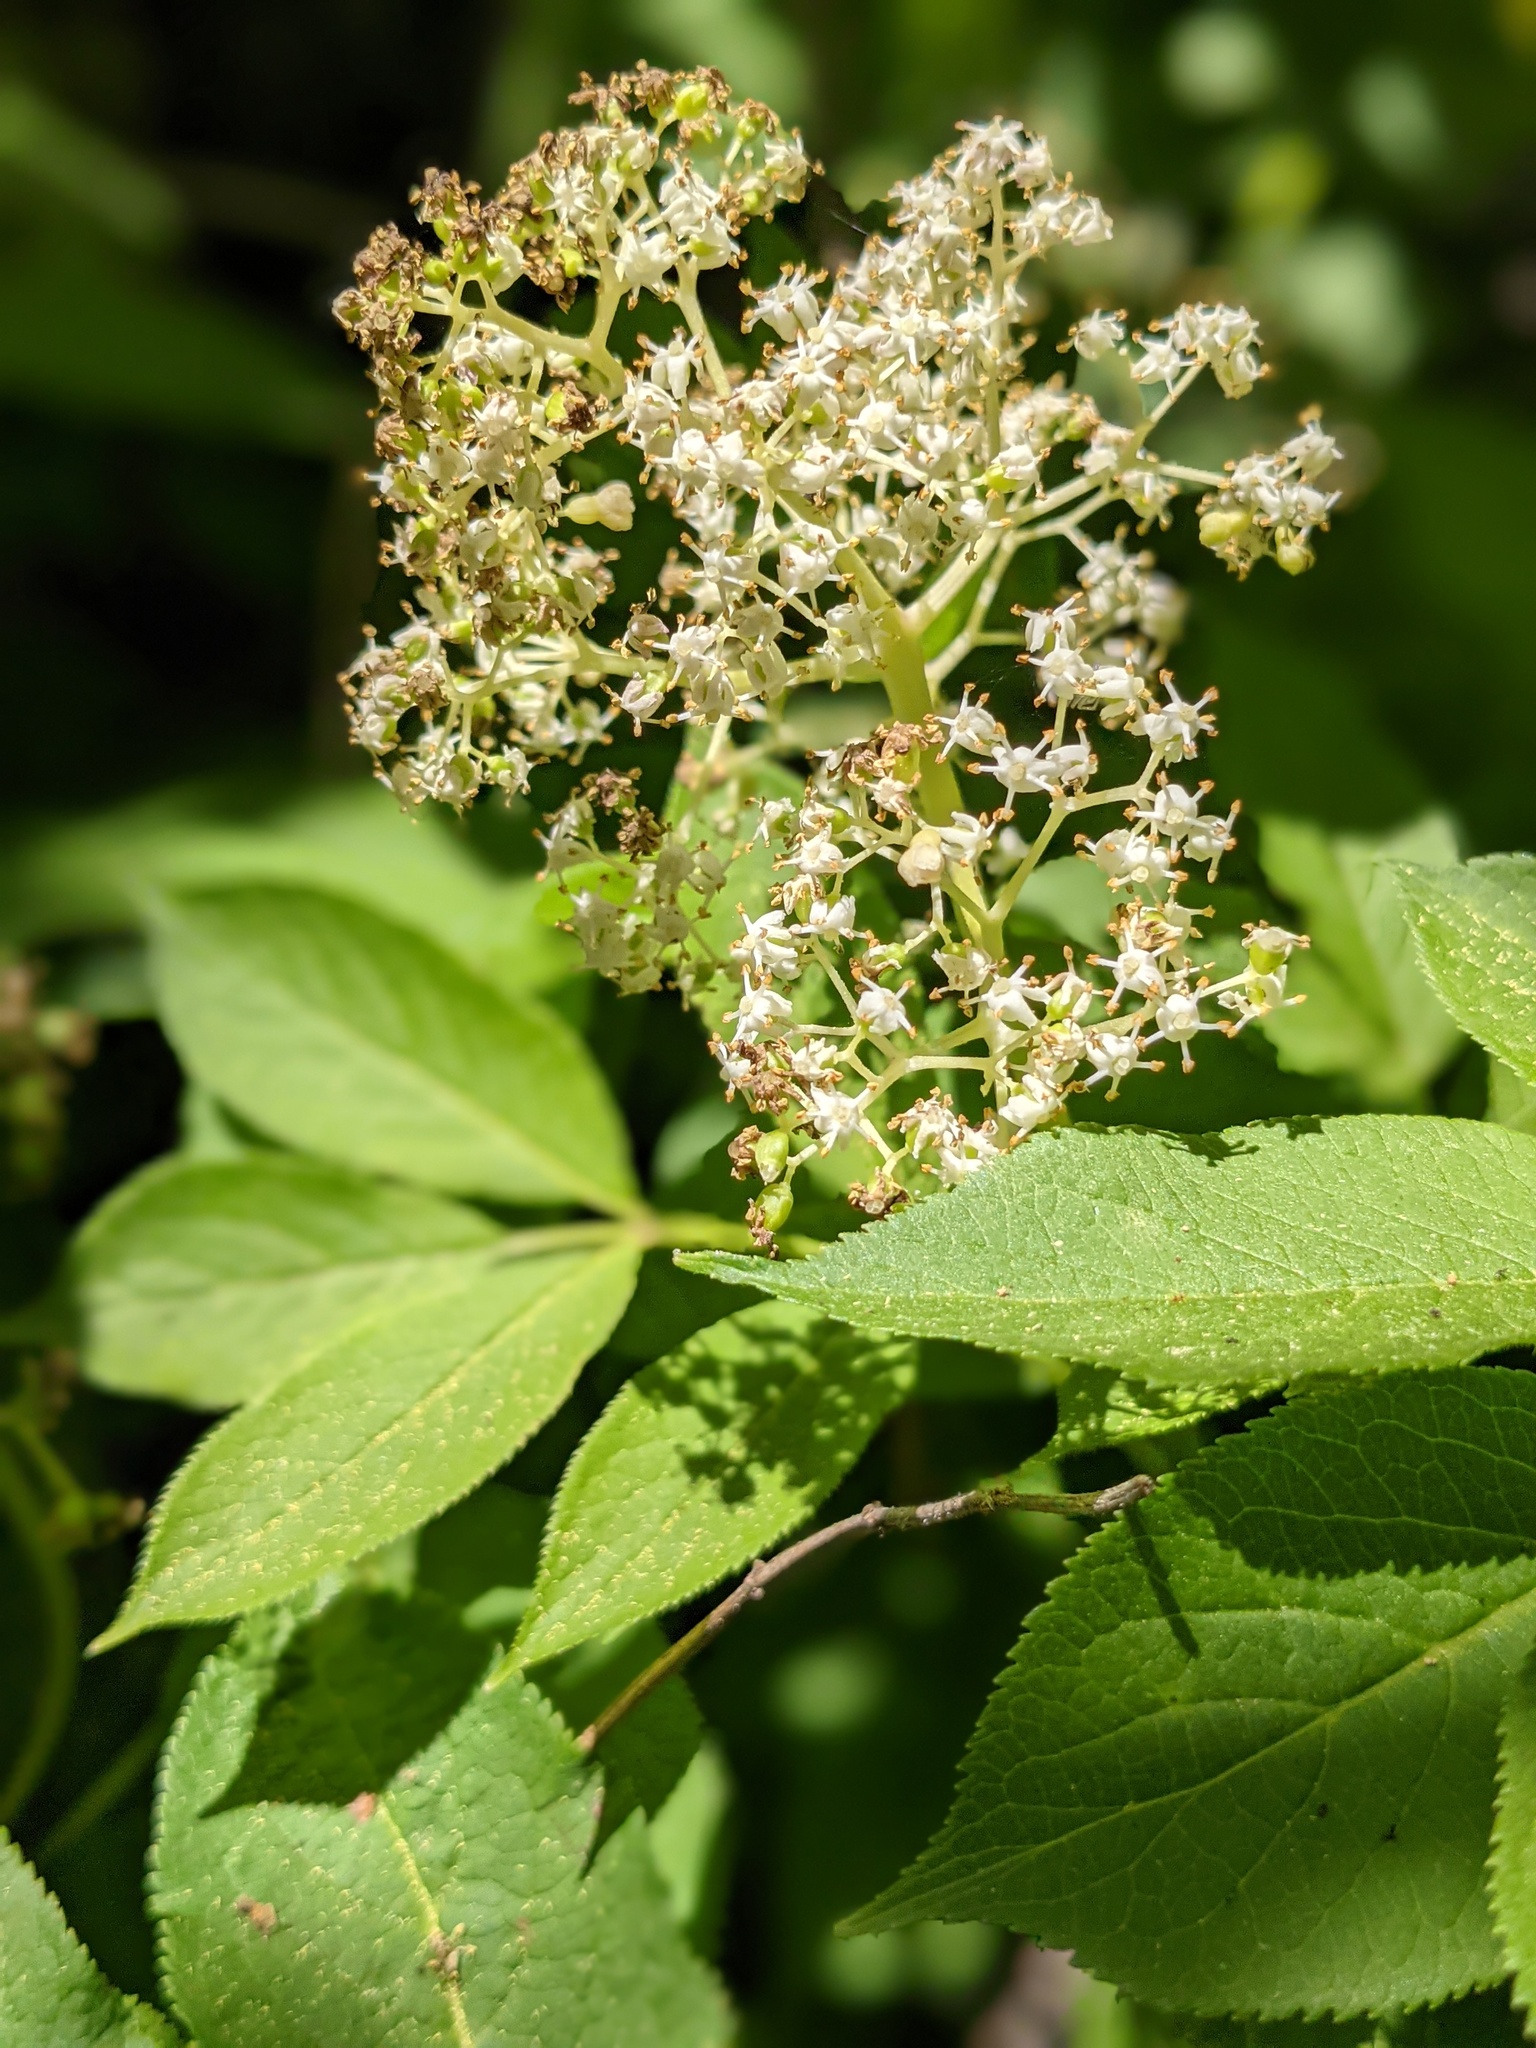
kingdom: Plantae
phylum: Tracheophyta
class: Magnoliopsida
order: Dipsacales
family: Viburnaceae
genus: Sambucus
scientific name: Sambucus racemosa
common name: Red-berried elder
